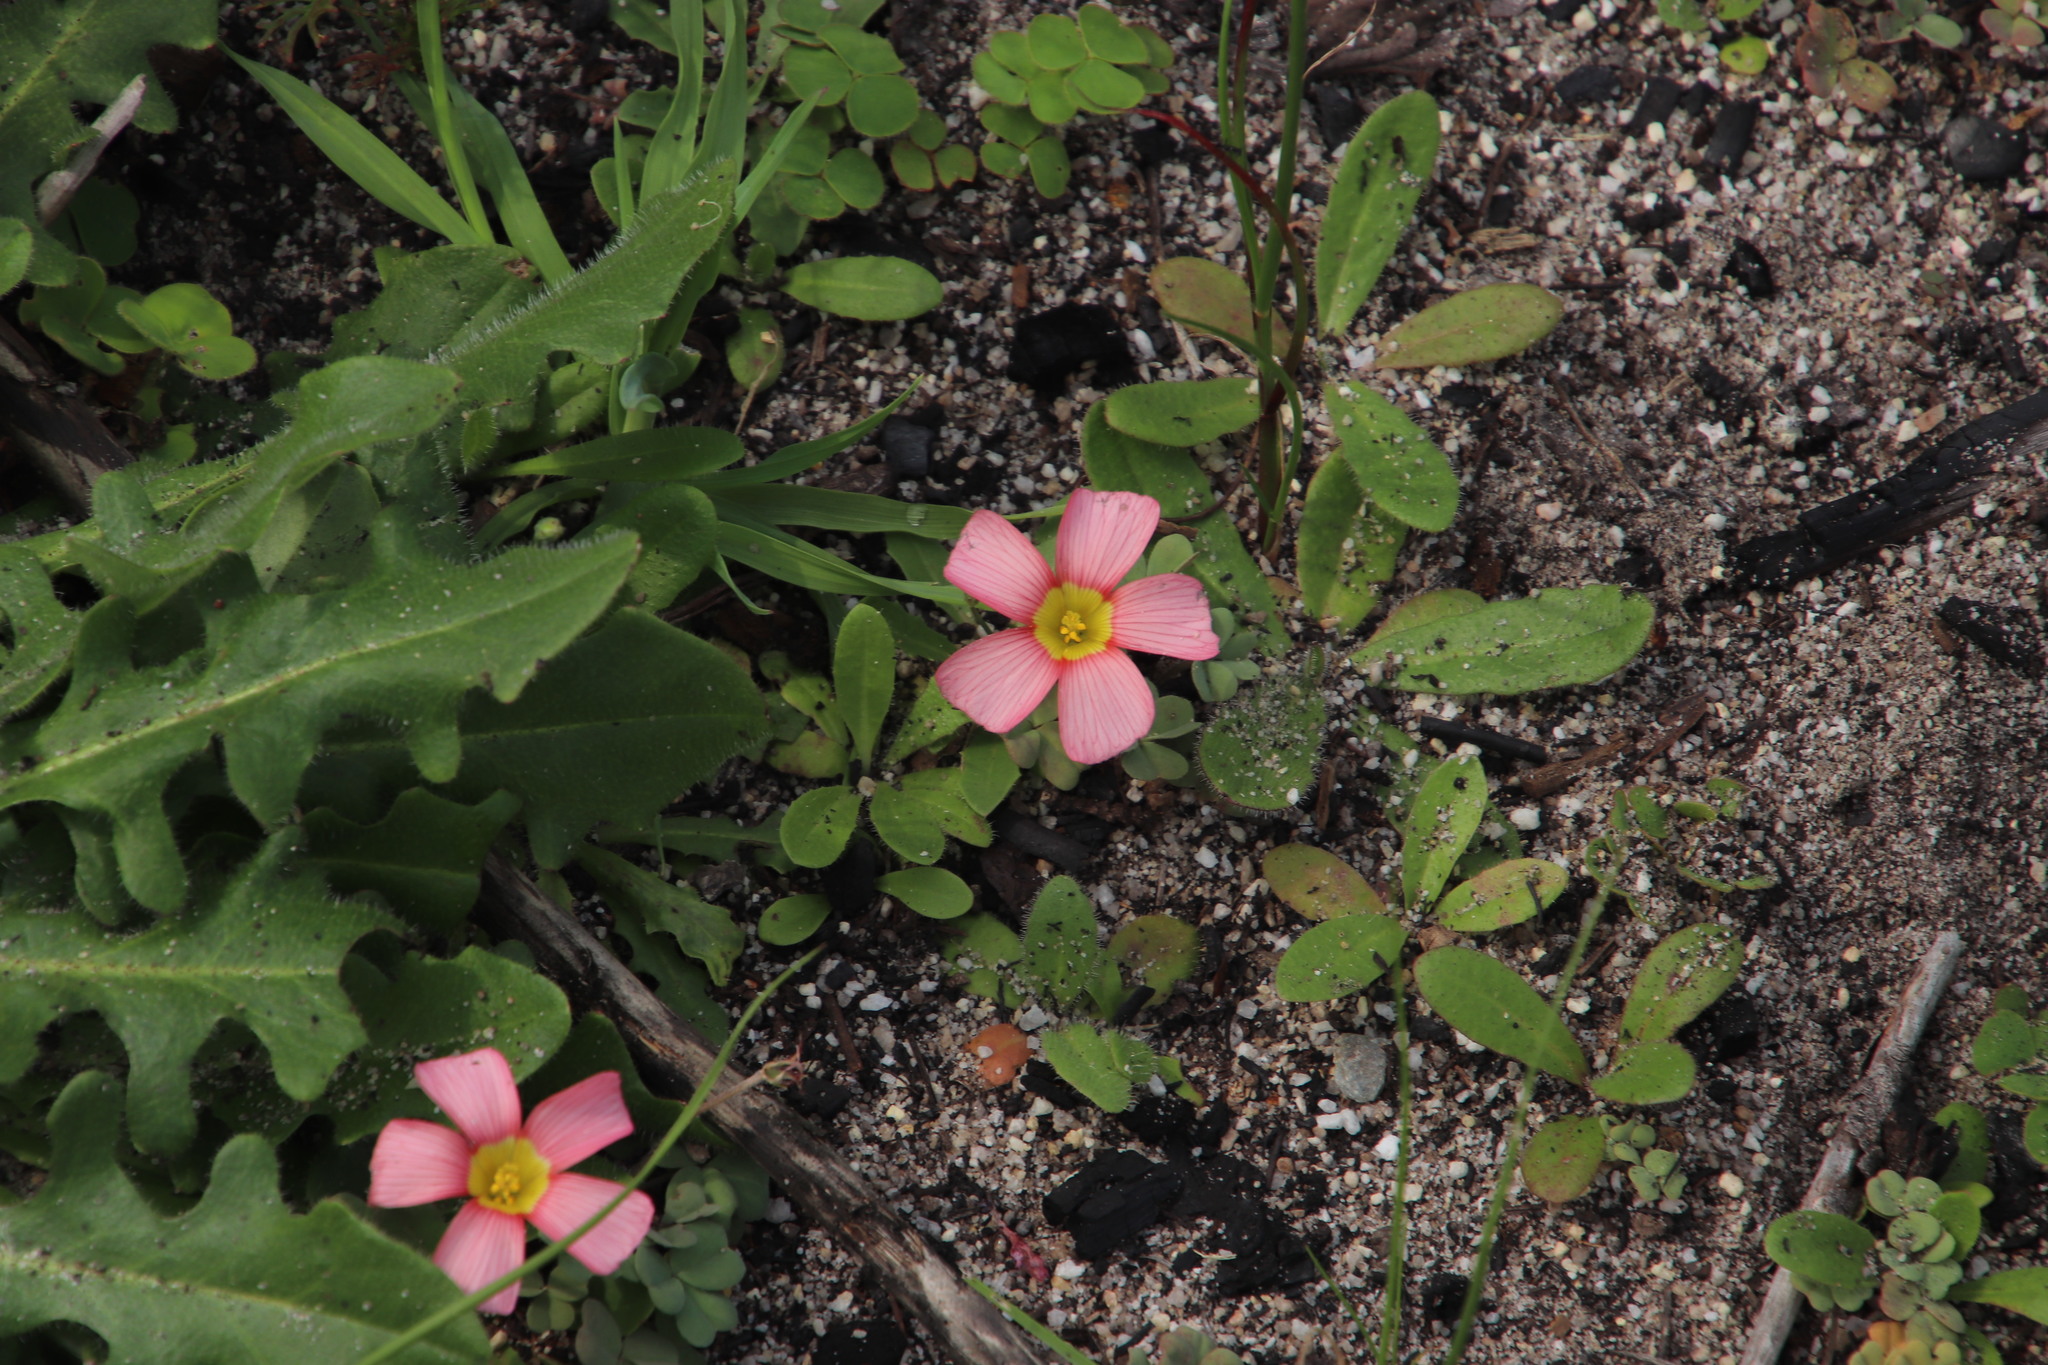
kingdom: Plantae
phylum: Tracheophyta
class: Magnoliopsida
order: Oxalidales
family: Oxalidaceae
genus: Oxalis
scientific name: Oxalis obtusa
